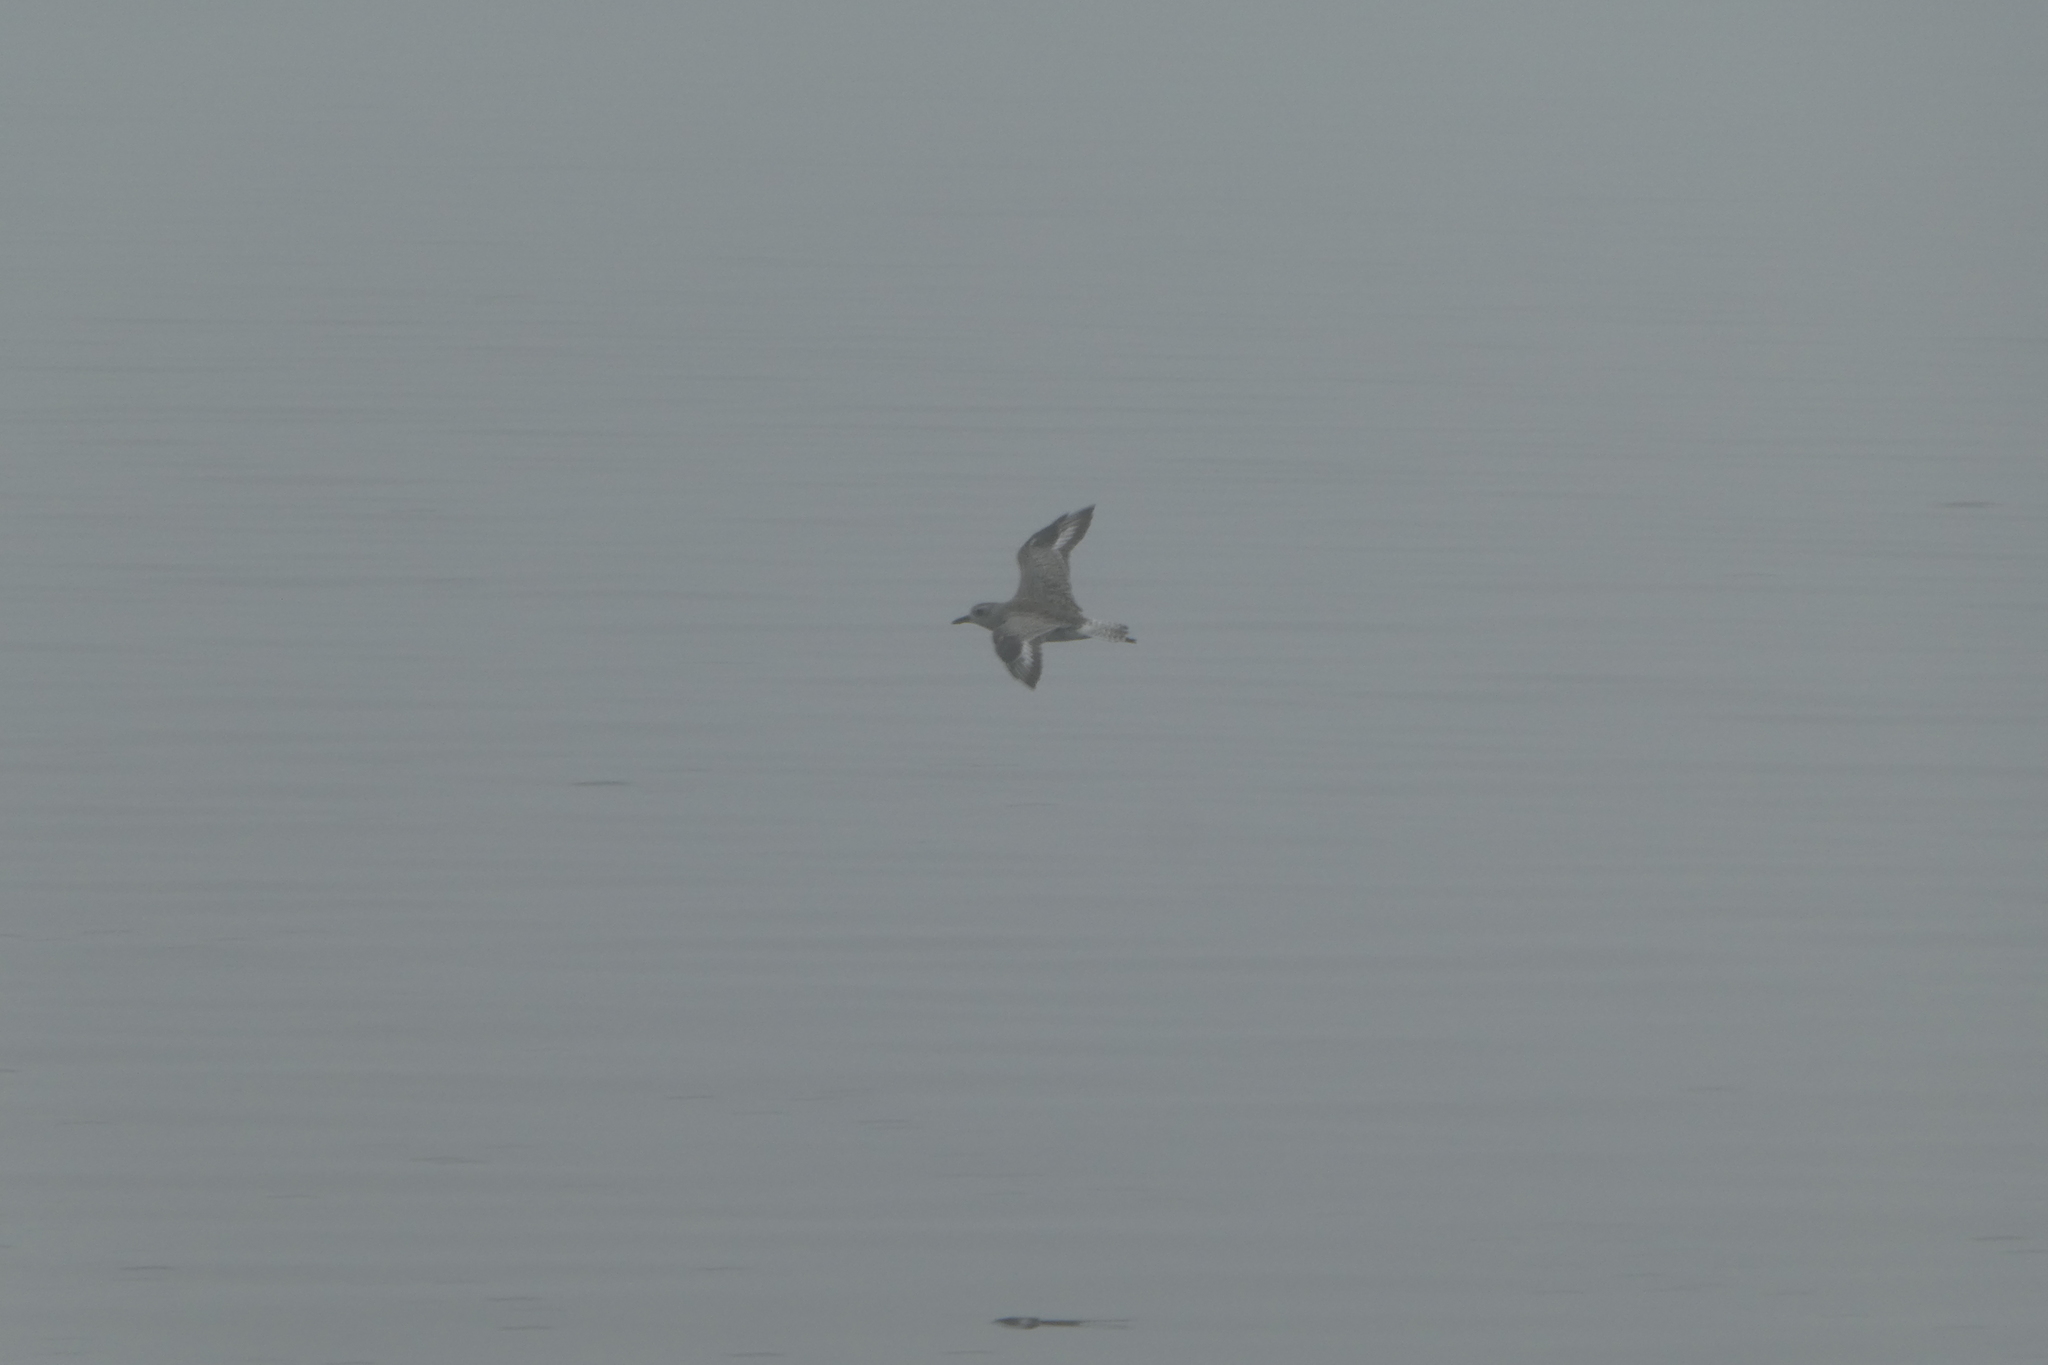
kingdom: Animalia
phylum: Chordata
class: Aves
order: Charadriiformes
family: Charadriidae
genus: Pluvialis
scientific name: Pluvialis squatarola
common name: Grey plover
